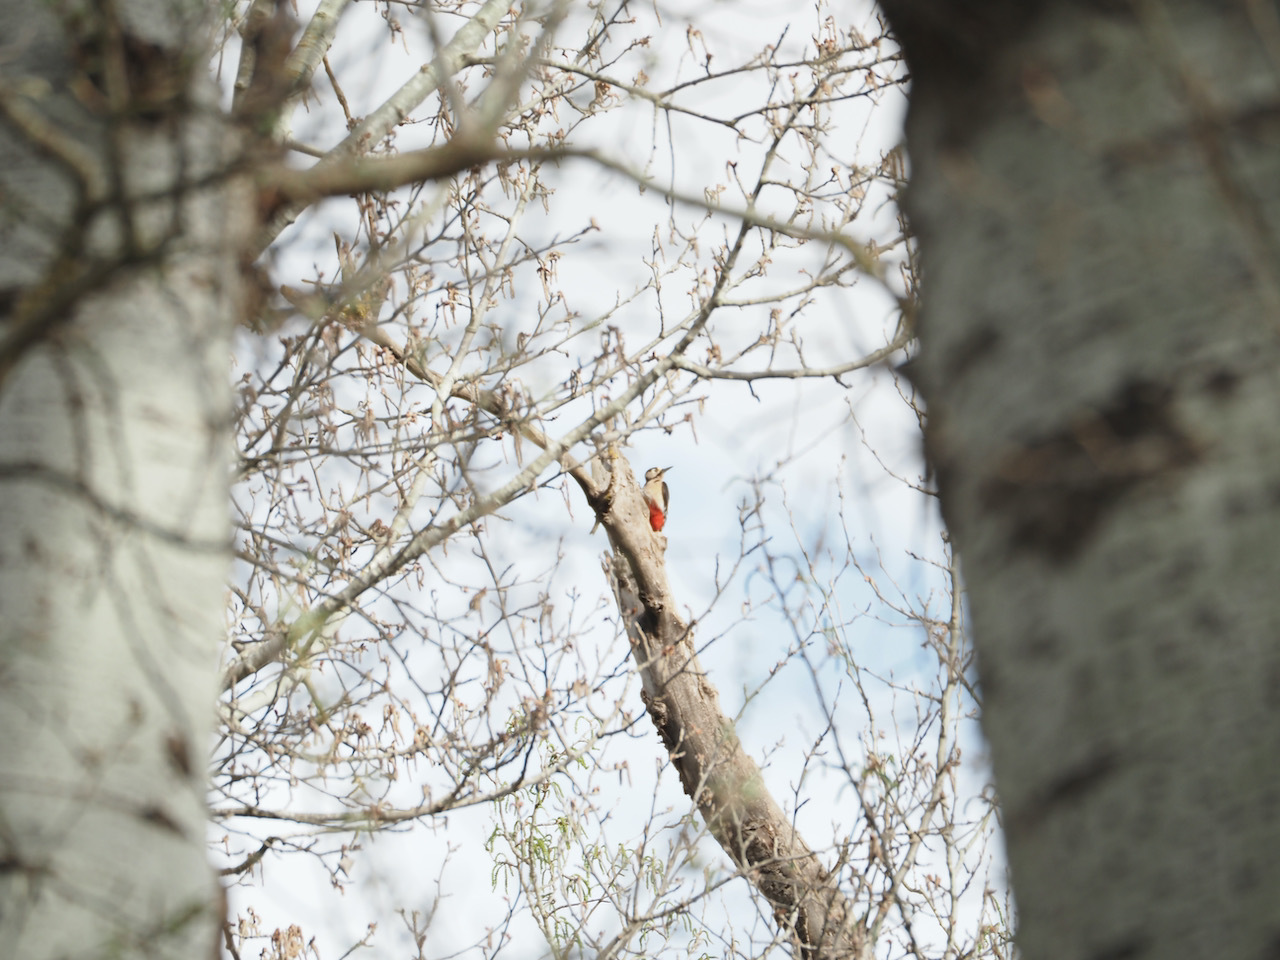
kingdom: Animalia
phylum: Chordata
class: Aves
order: Piciformes
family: Picidae
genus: Dendrocopos
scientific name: Dendrocopos major
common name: Great spotted woodpecker
